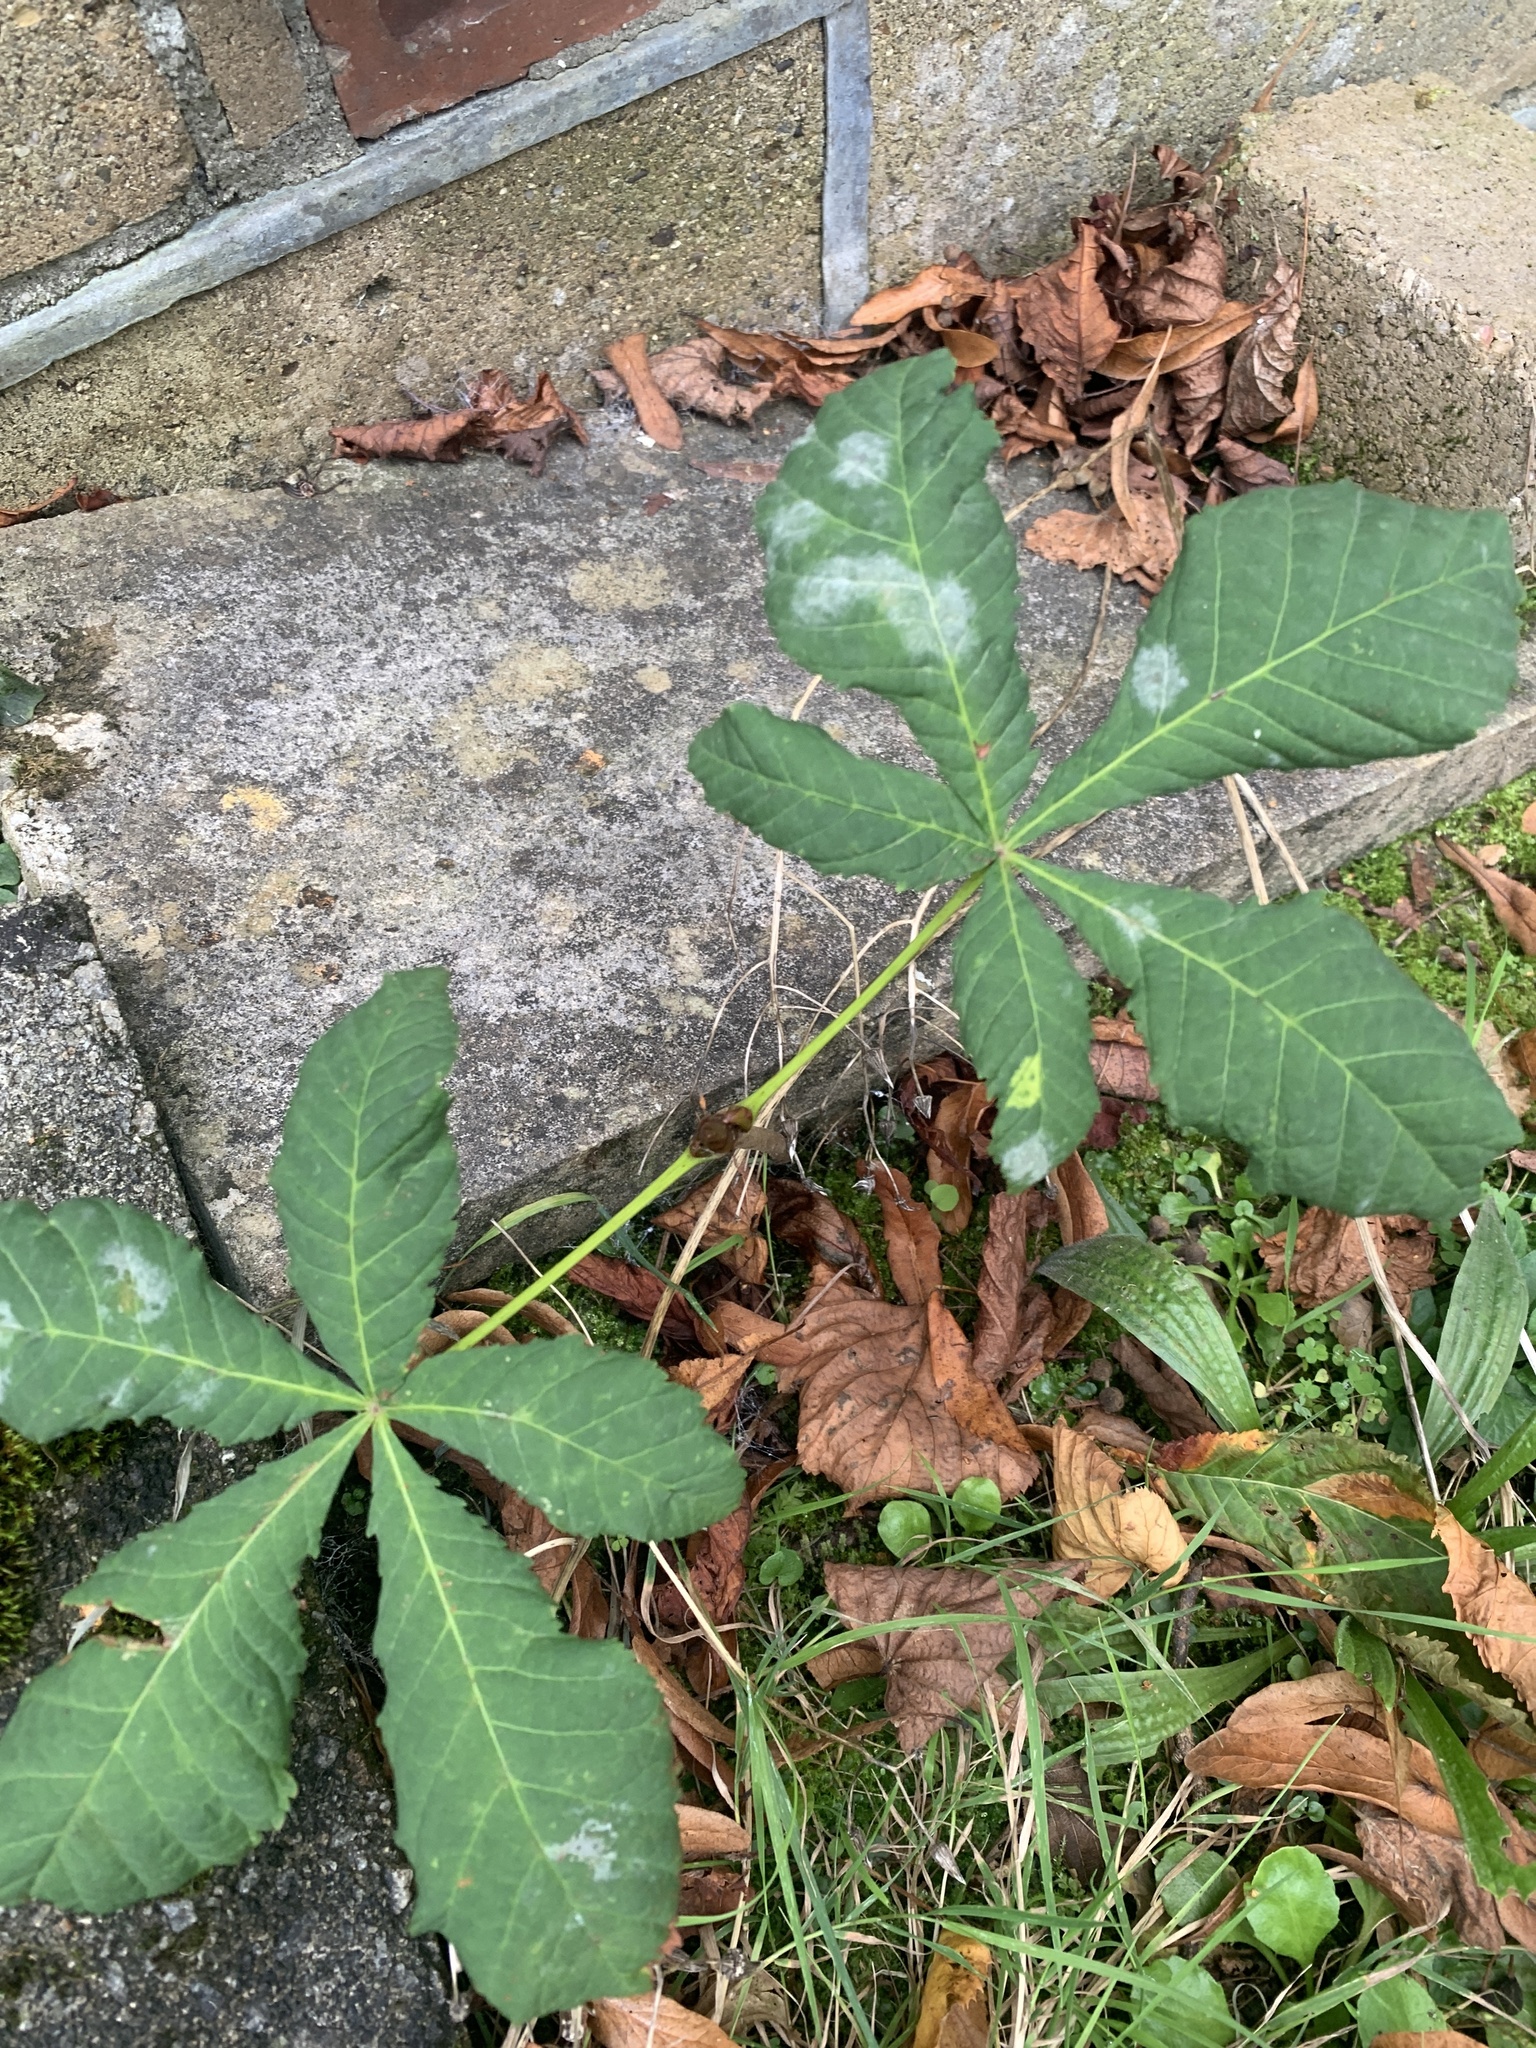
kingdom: Plantae
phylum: Tracheophyta
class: Magnoliopsida
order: Sapindales
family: Sapindaceae
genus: Aesculus
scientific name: Aesculus hippocastanum
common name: Horse-chestnut
